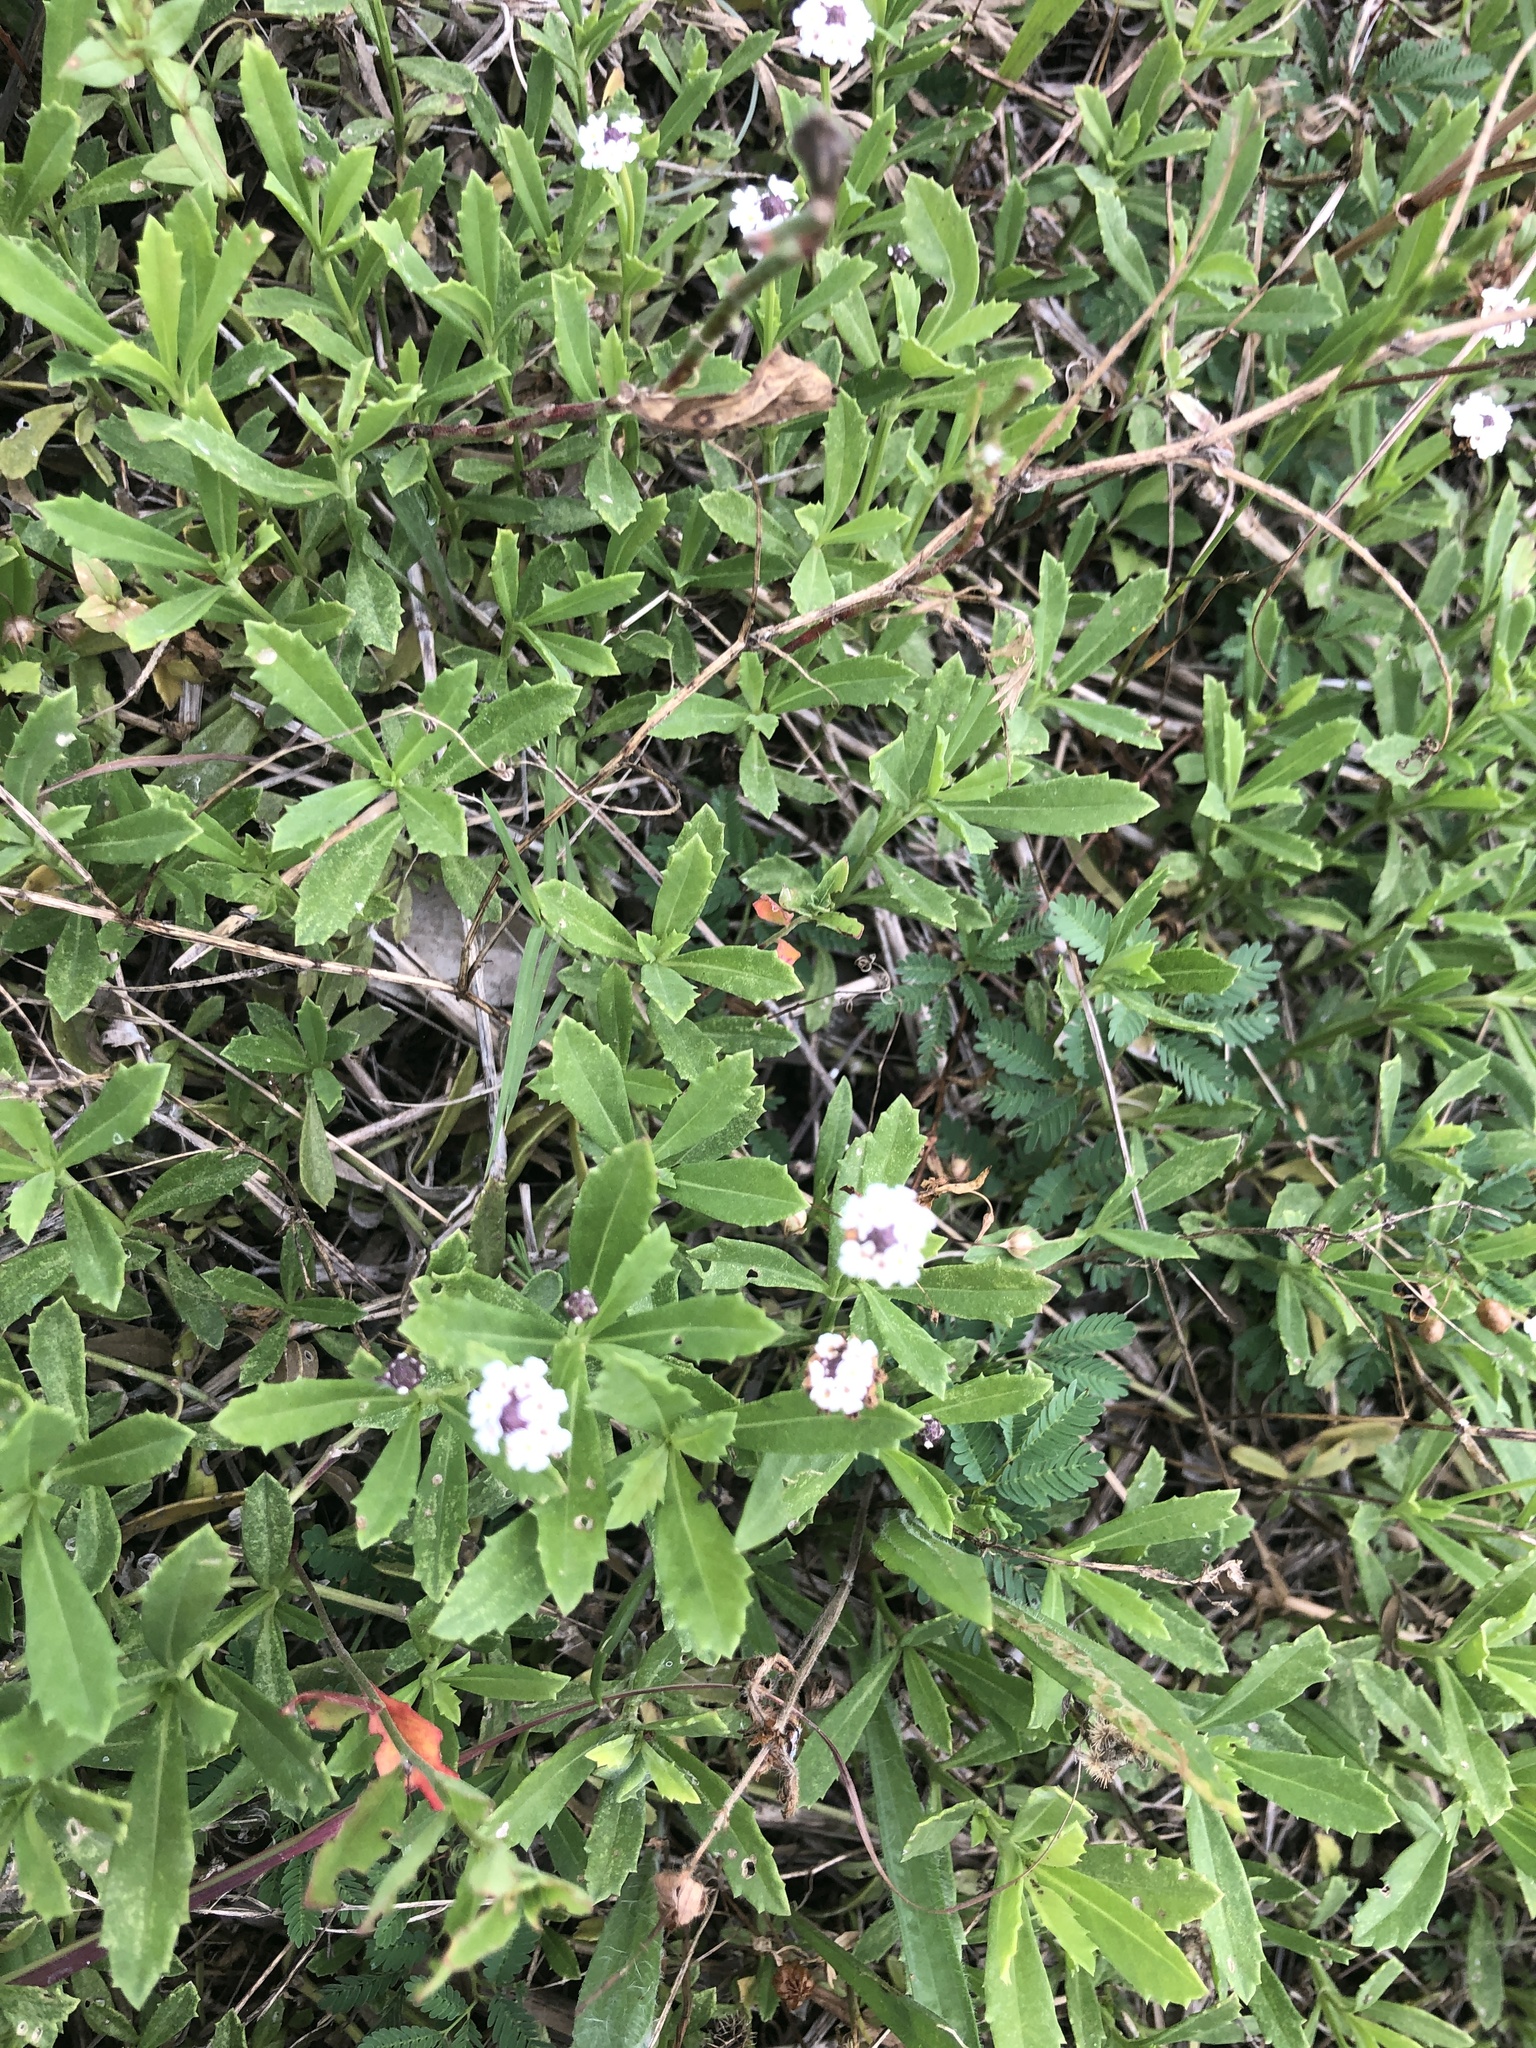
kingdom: Plantae
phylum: Tracheophyta
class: Magnoliopsida
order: Lamiales
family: Verbenaceae
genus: Phyla
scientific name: Phyla nodiflora
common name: Frogfruit
